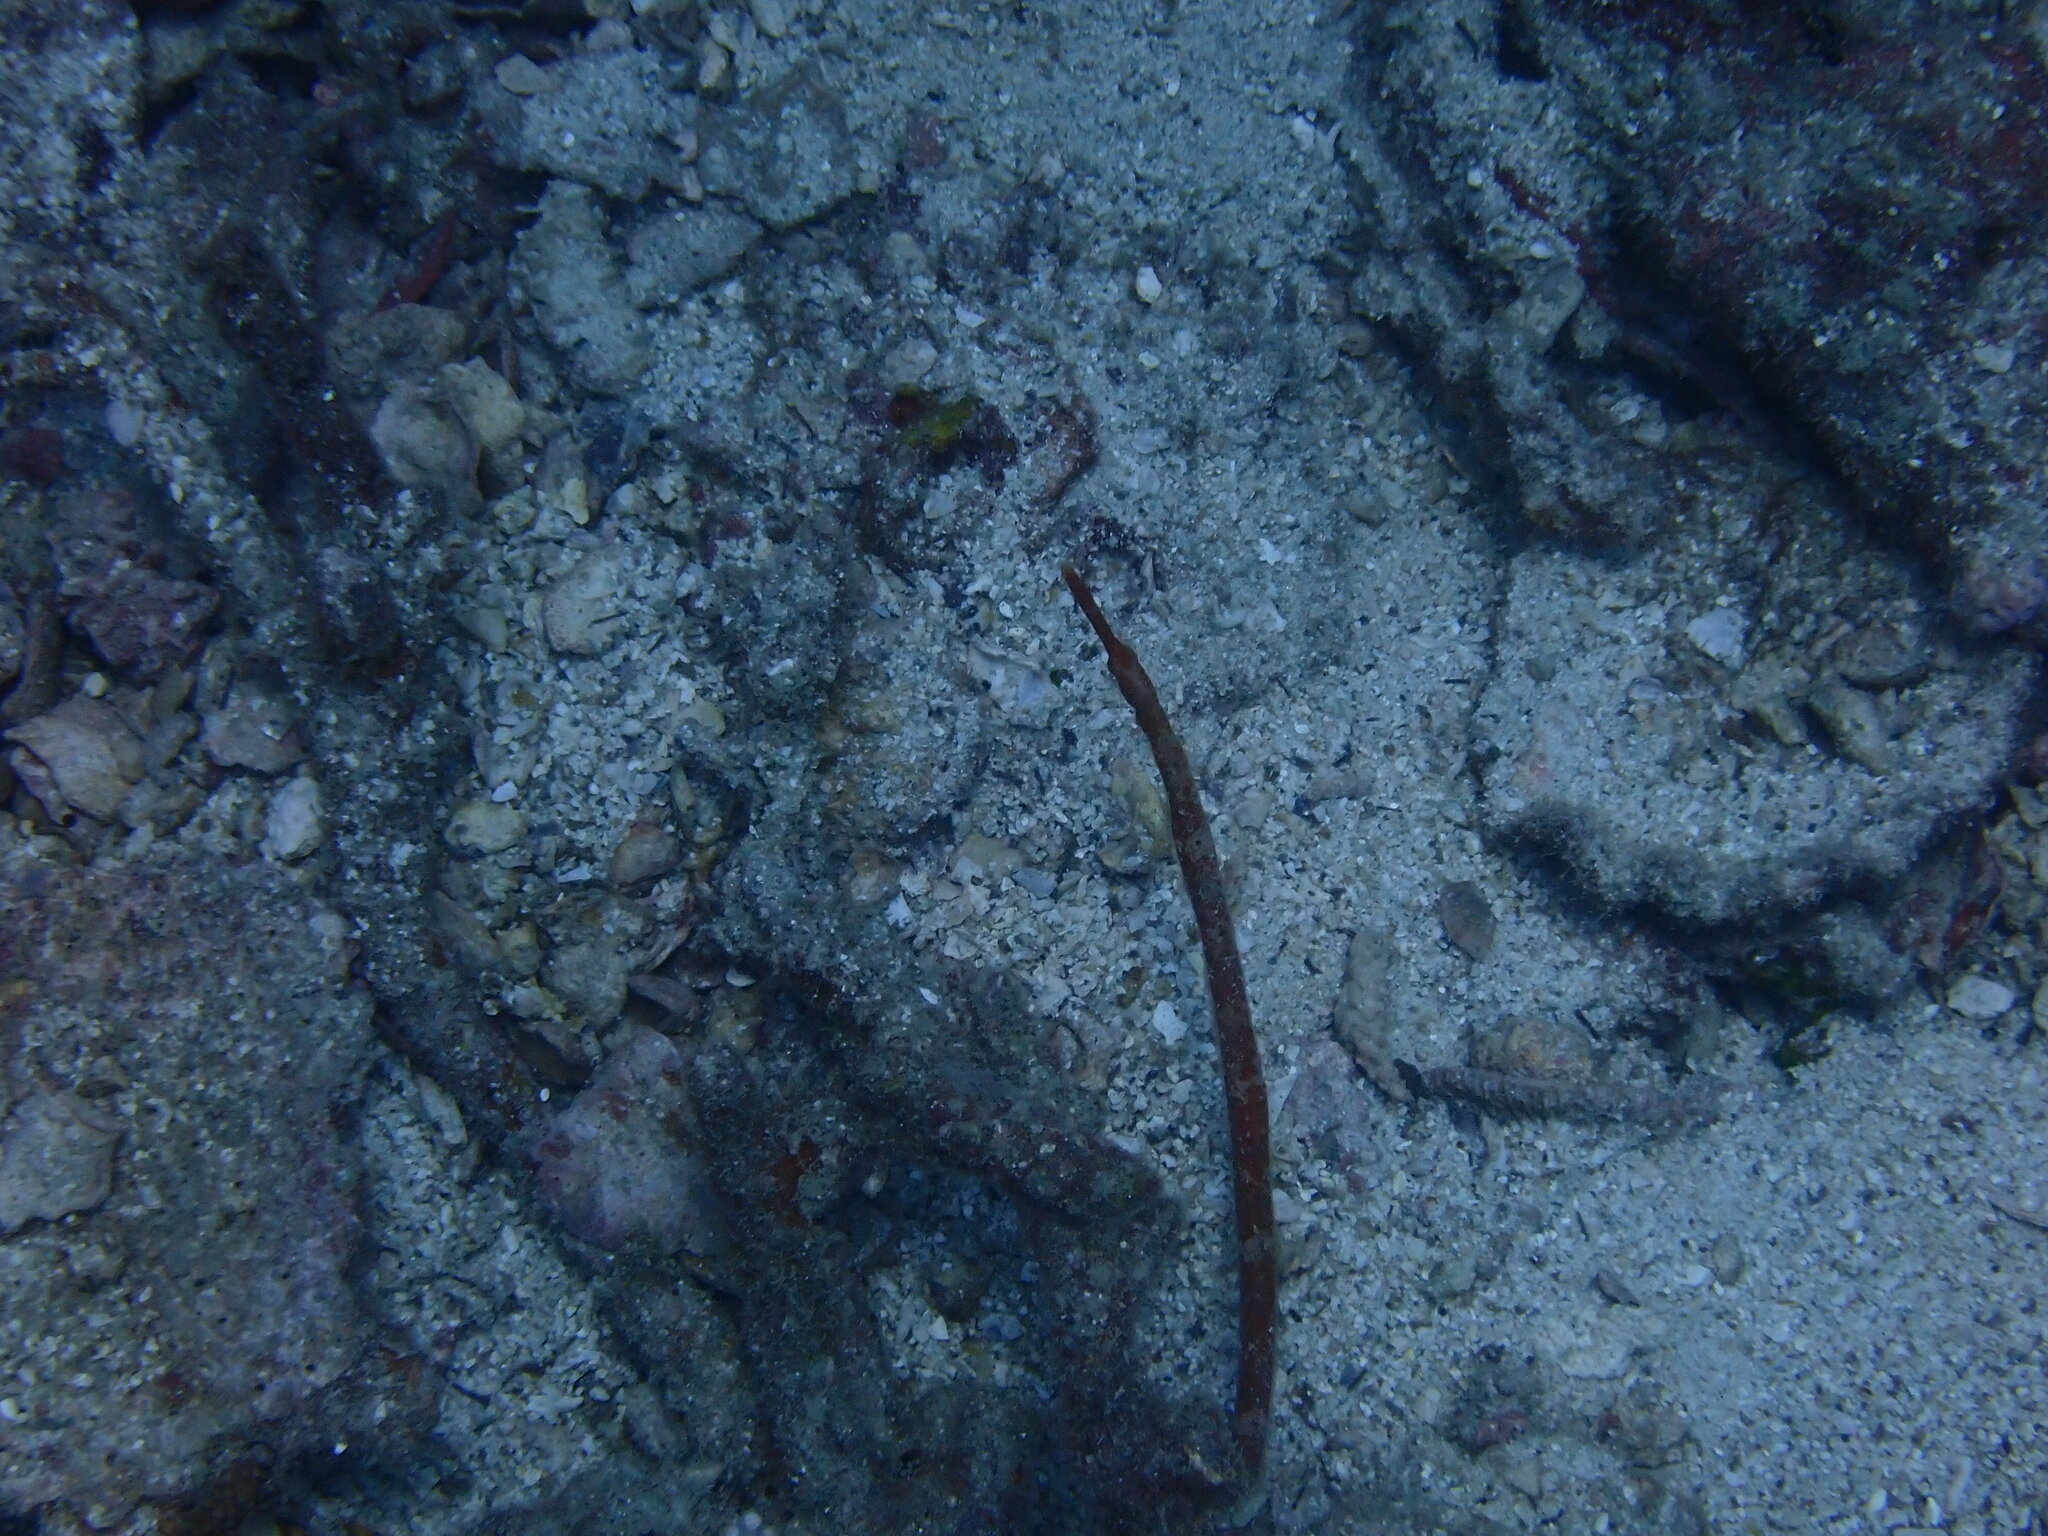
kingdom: Animalia
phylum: Chordata
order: Syngnathiformes
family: Syngnathidae
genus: Trachyrhamphus
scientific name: Trachyrhamphus bicoarctatus
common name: Double-ended pipefish
